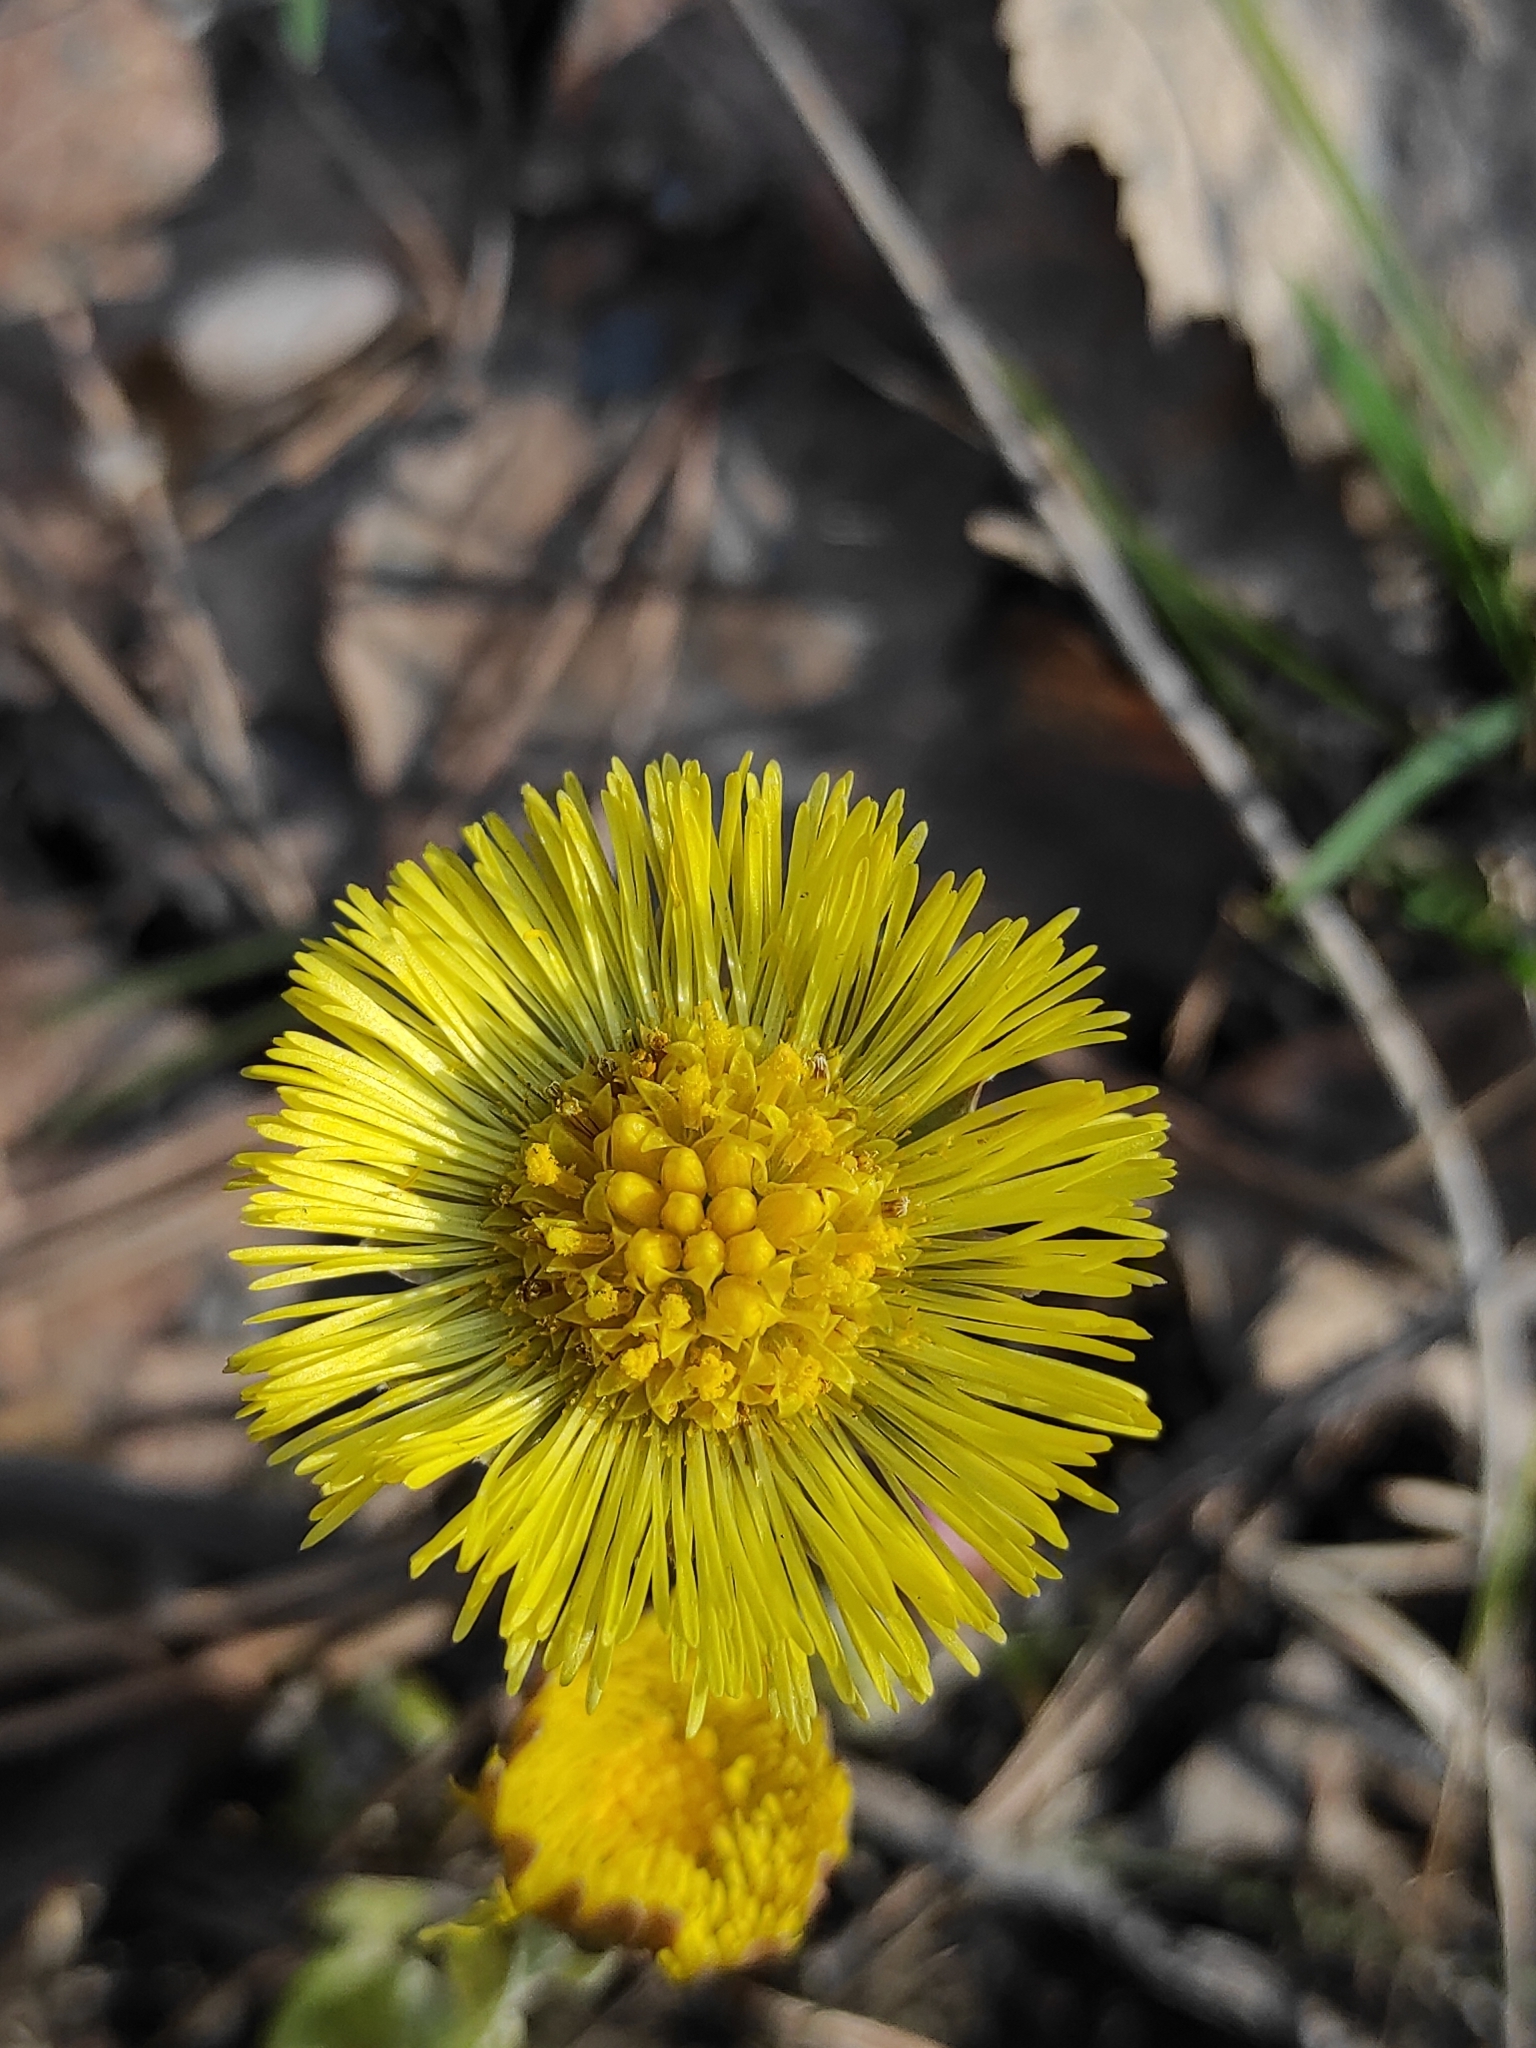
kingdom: Plantae
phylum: Tracheophyta
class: Magnoliopsida
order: Asterales
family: Asteraceae
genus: Tussilago
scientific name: Tussilago farfara
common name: Coltsfoot
